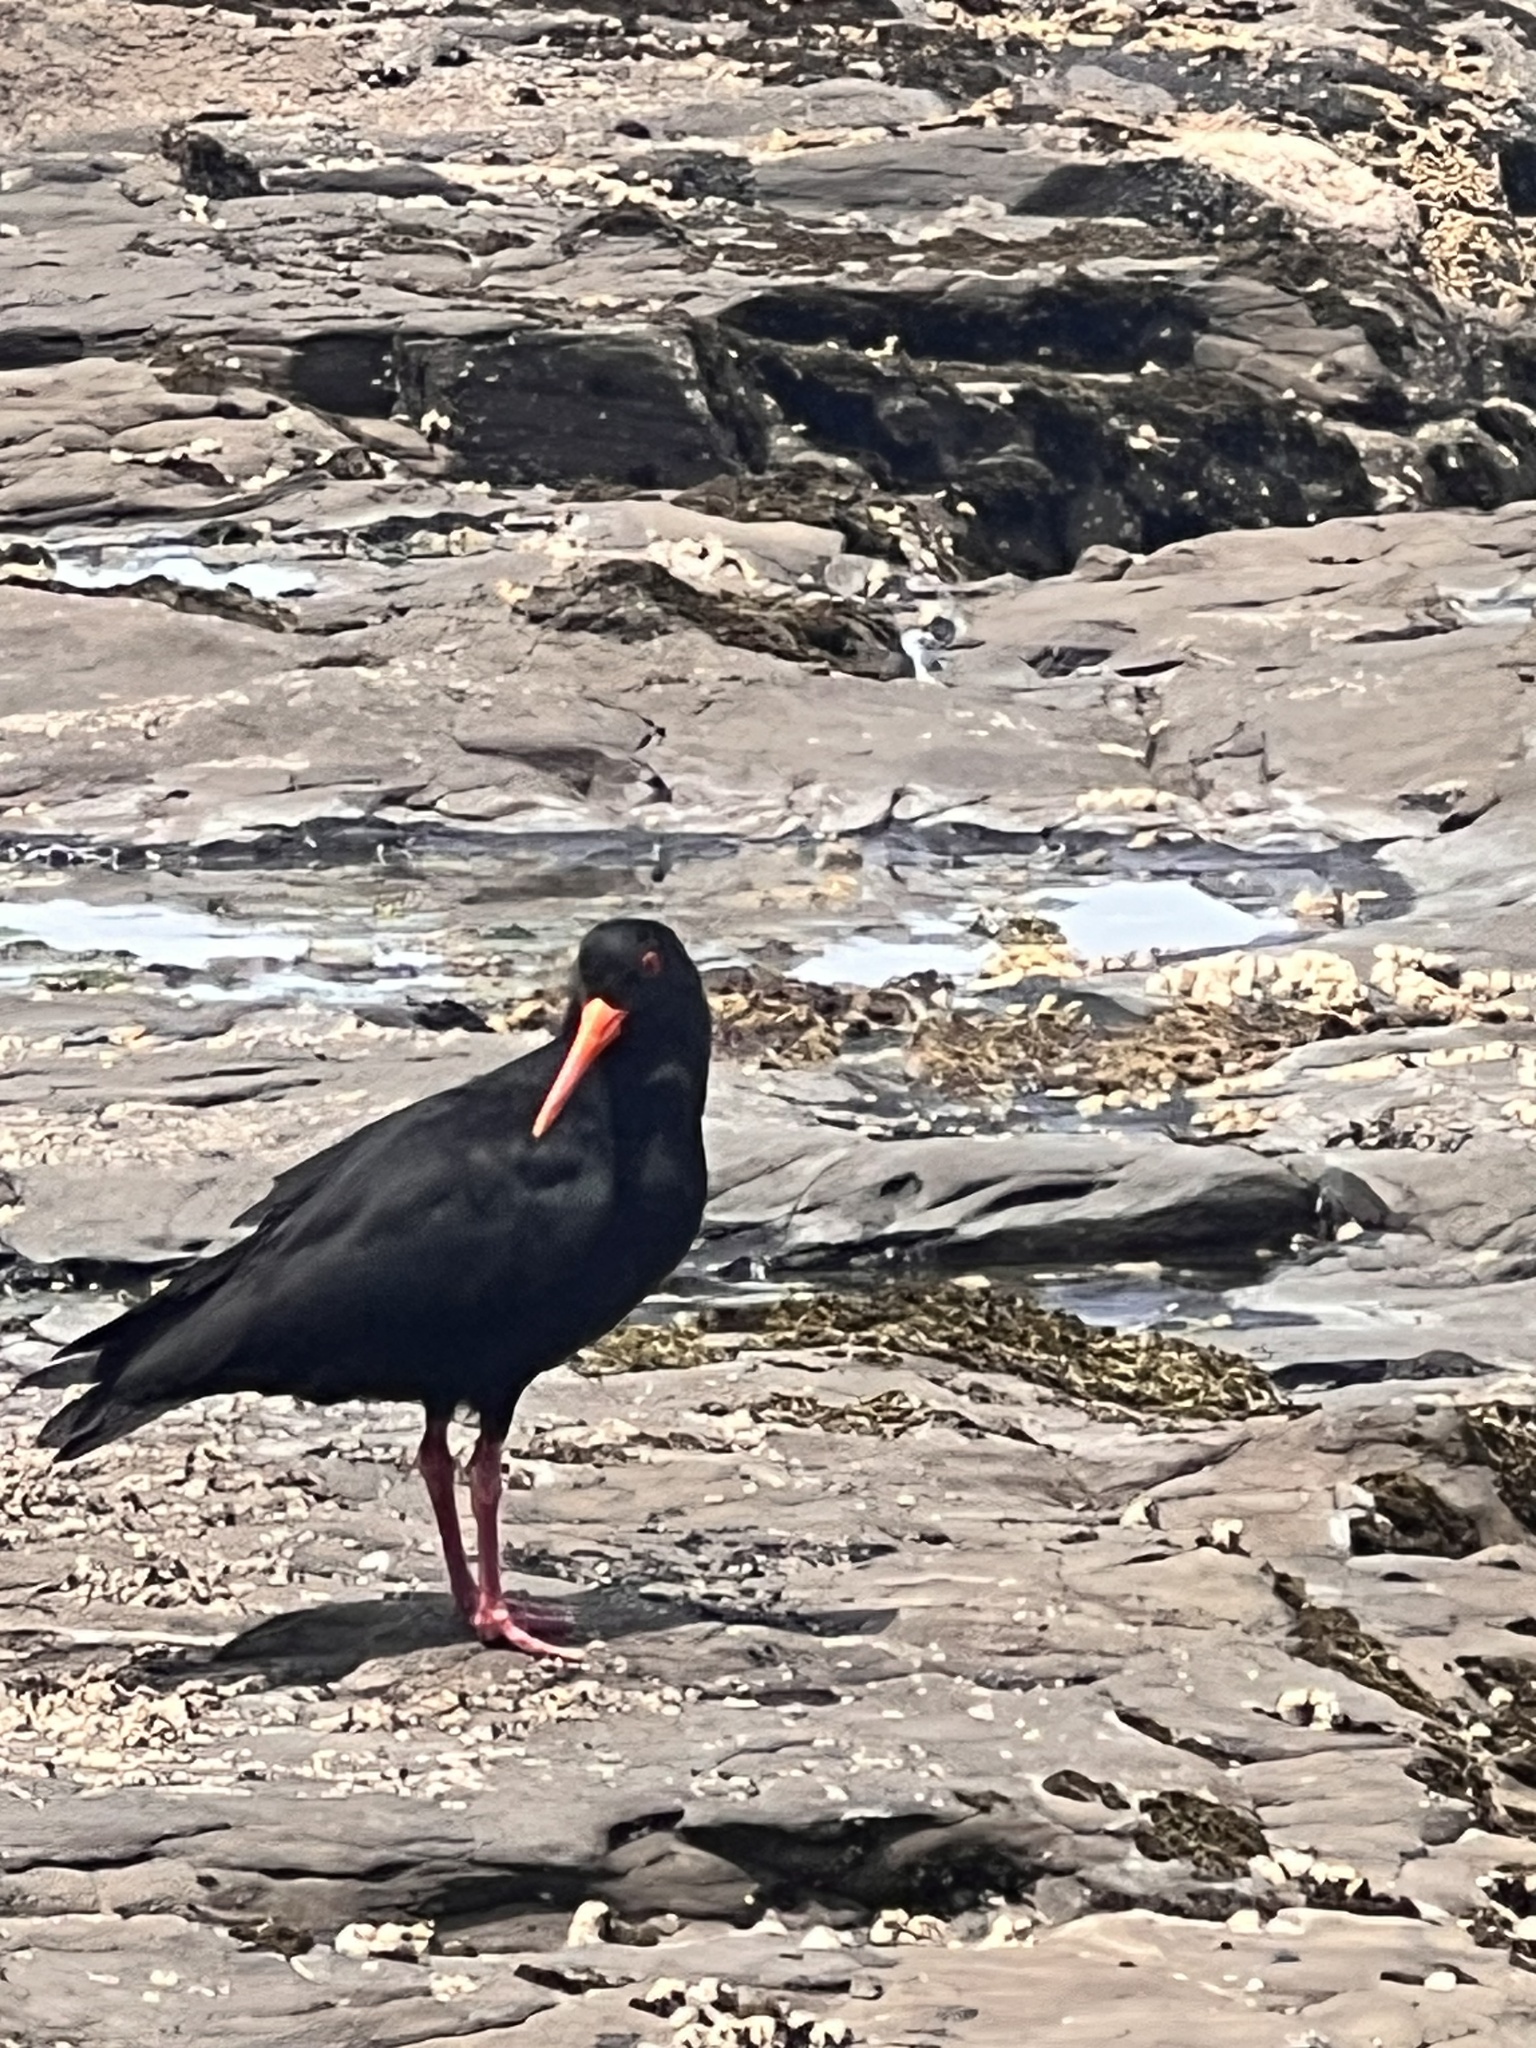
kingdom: Animalia
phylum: Chordata
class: Aves
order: Charadriiformes
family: Haematopodidae
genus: Haematopus
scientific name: Haematopus unicolor
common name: Variable oystercatcher
